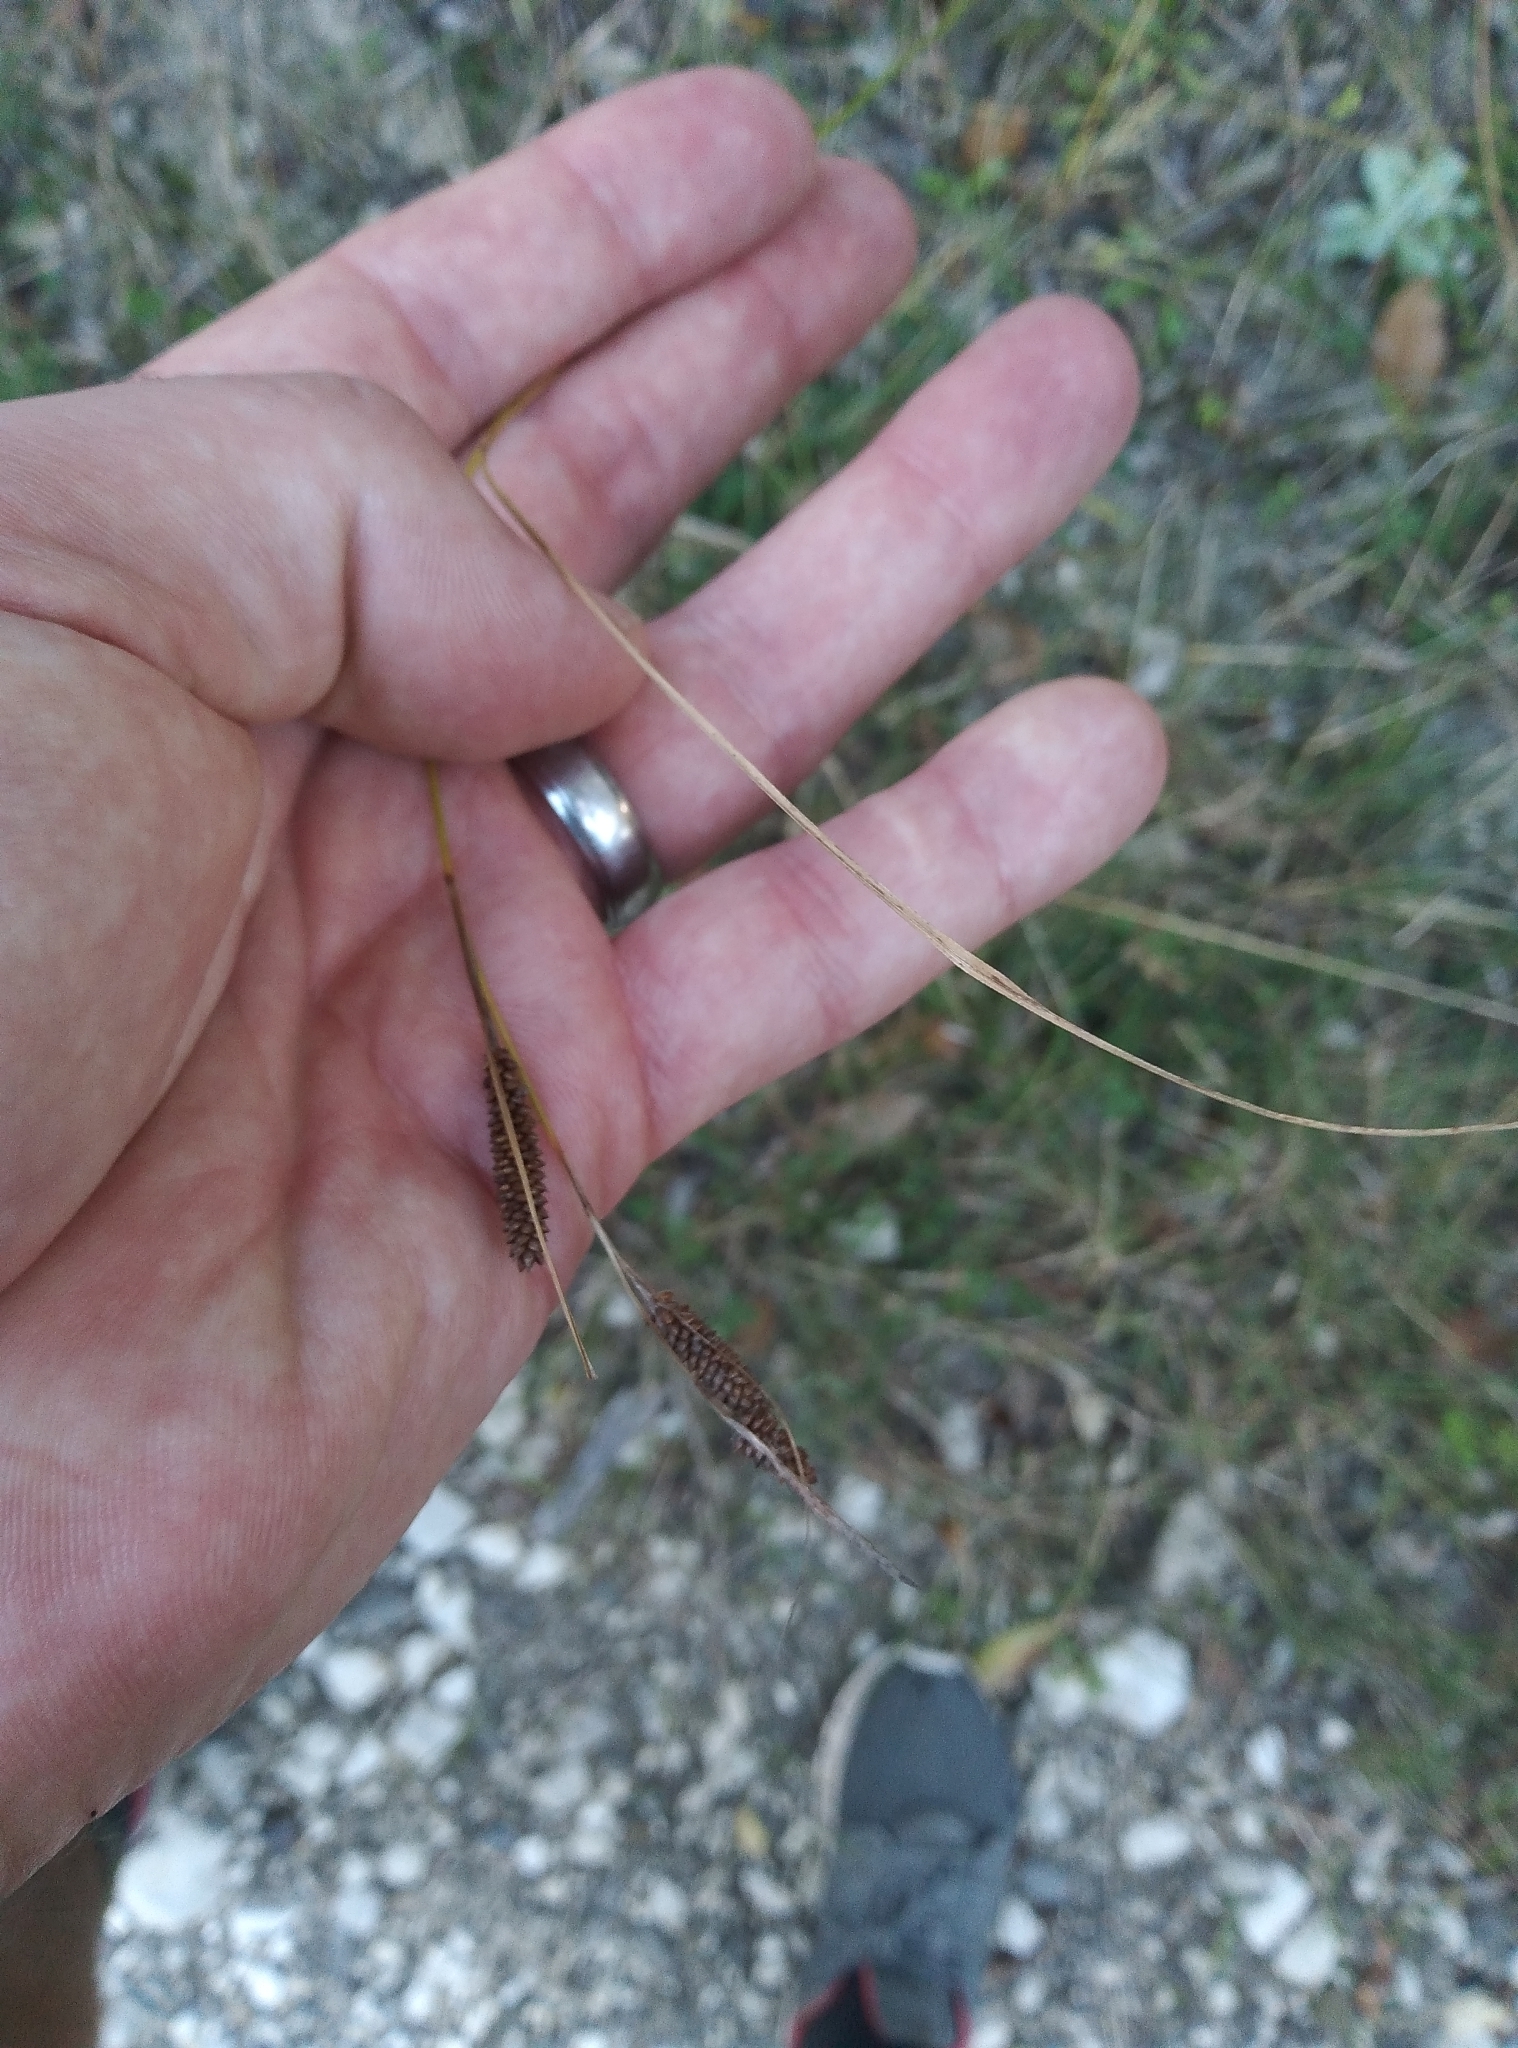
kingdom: Plantae
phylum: Tracheophyta
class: Liliopsida
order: Poales
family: Cyperaceae
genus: Carex
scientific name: Carex flagellifera
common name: Glen murray tussock
